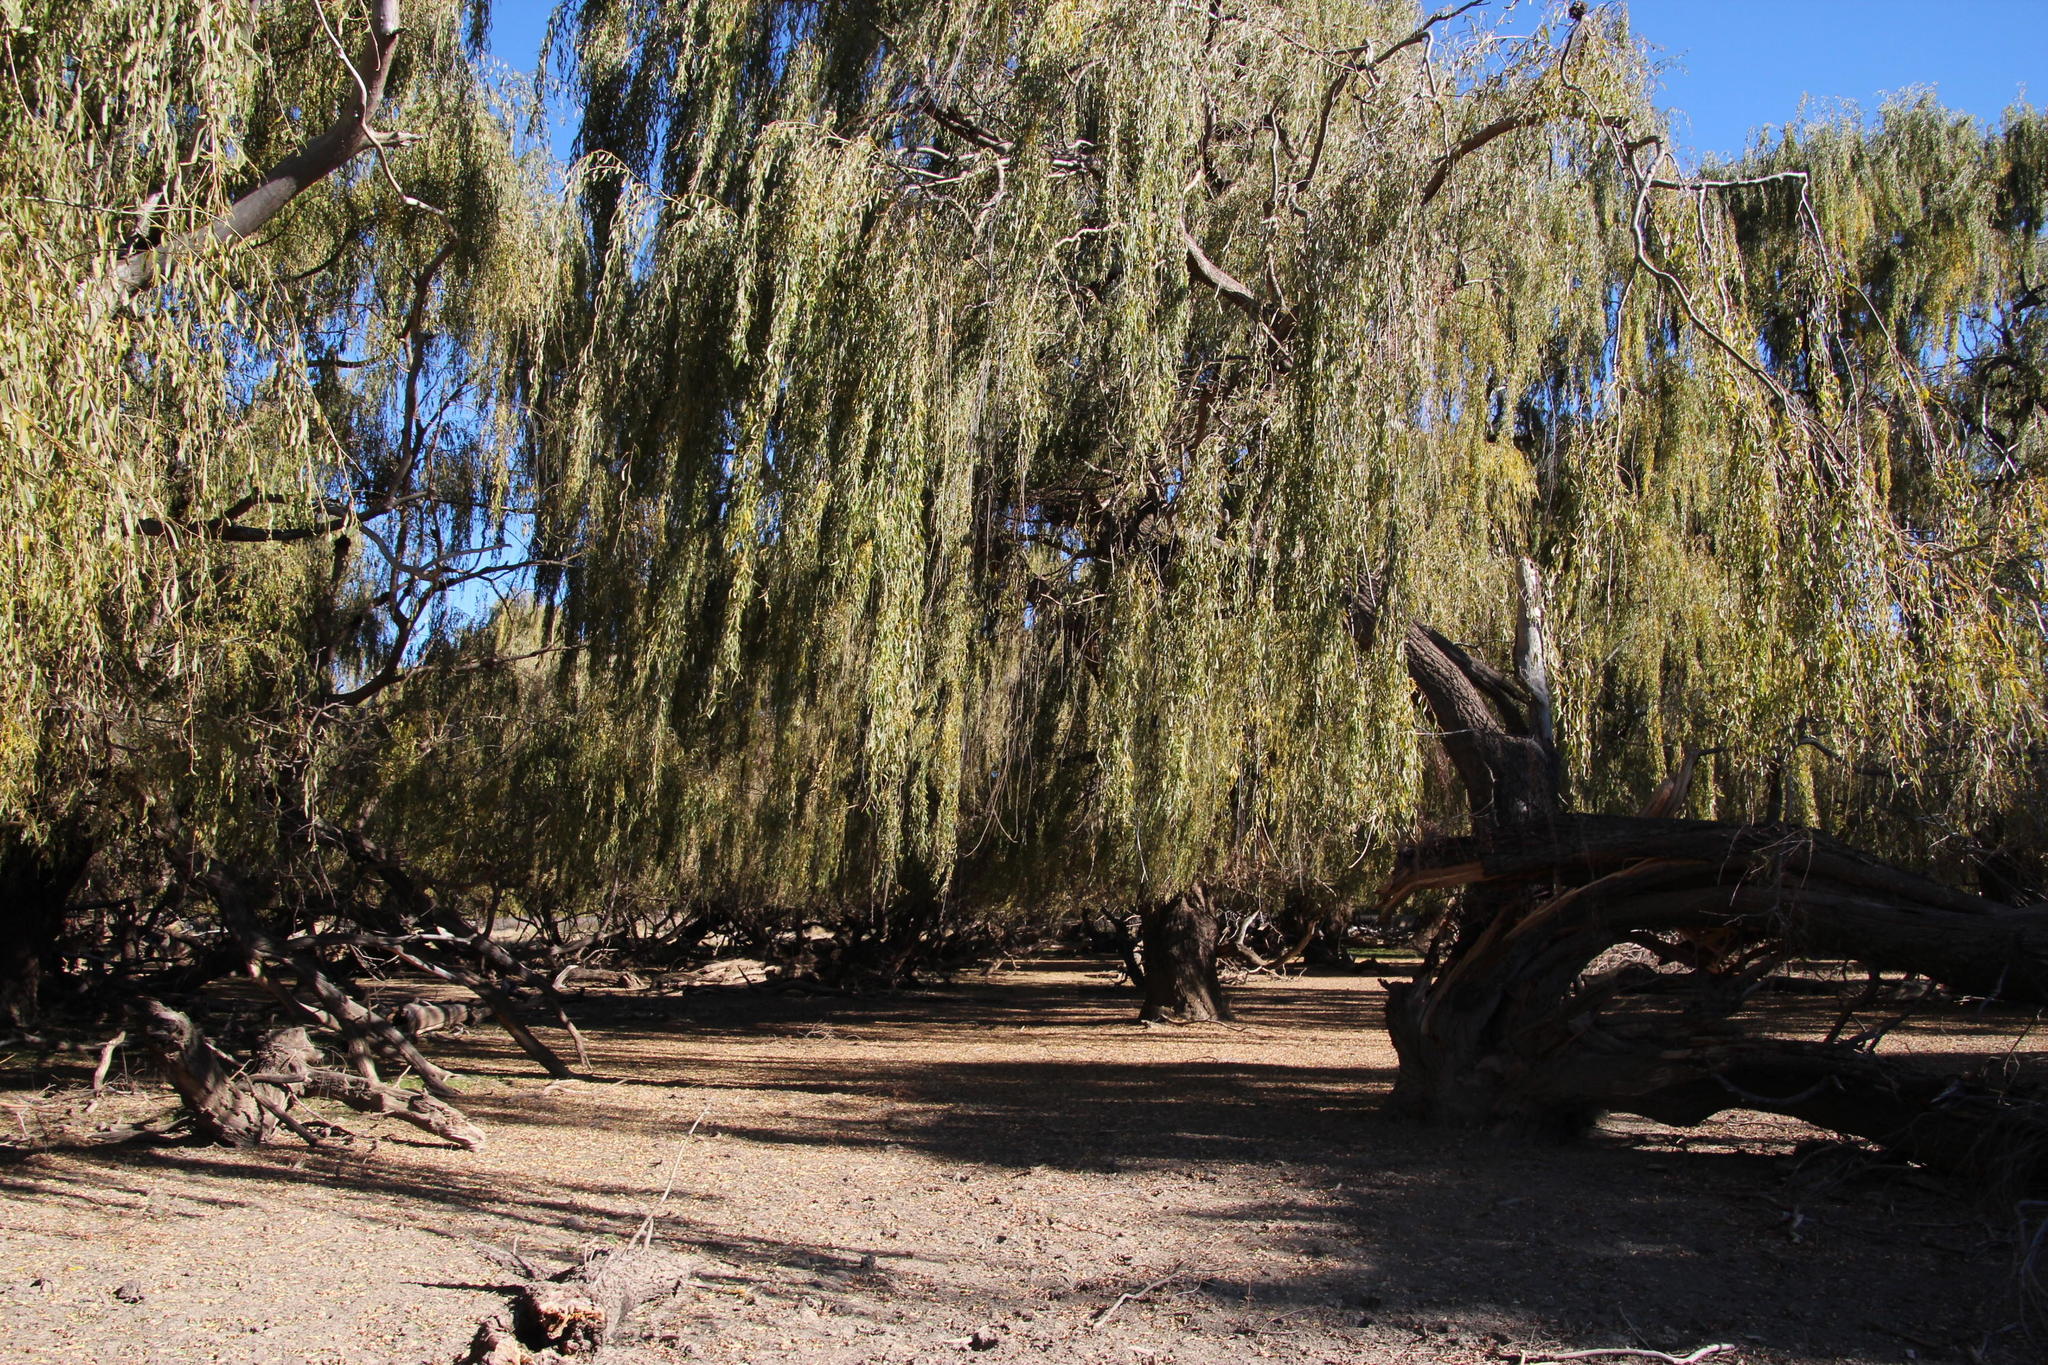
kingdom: Plantae
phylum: Tracheophyta
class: Magnoliopsida
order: Malpighiales
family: Salicaceae
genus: Salix
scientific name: Salix babylonica
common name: Weeping willow
